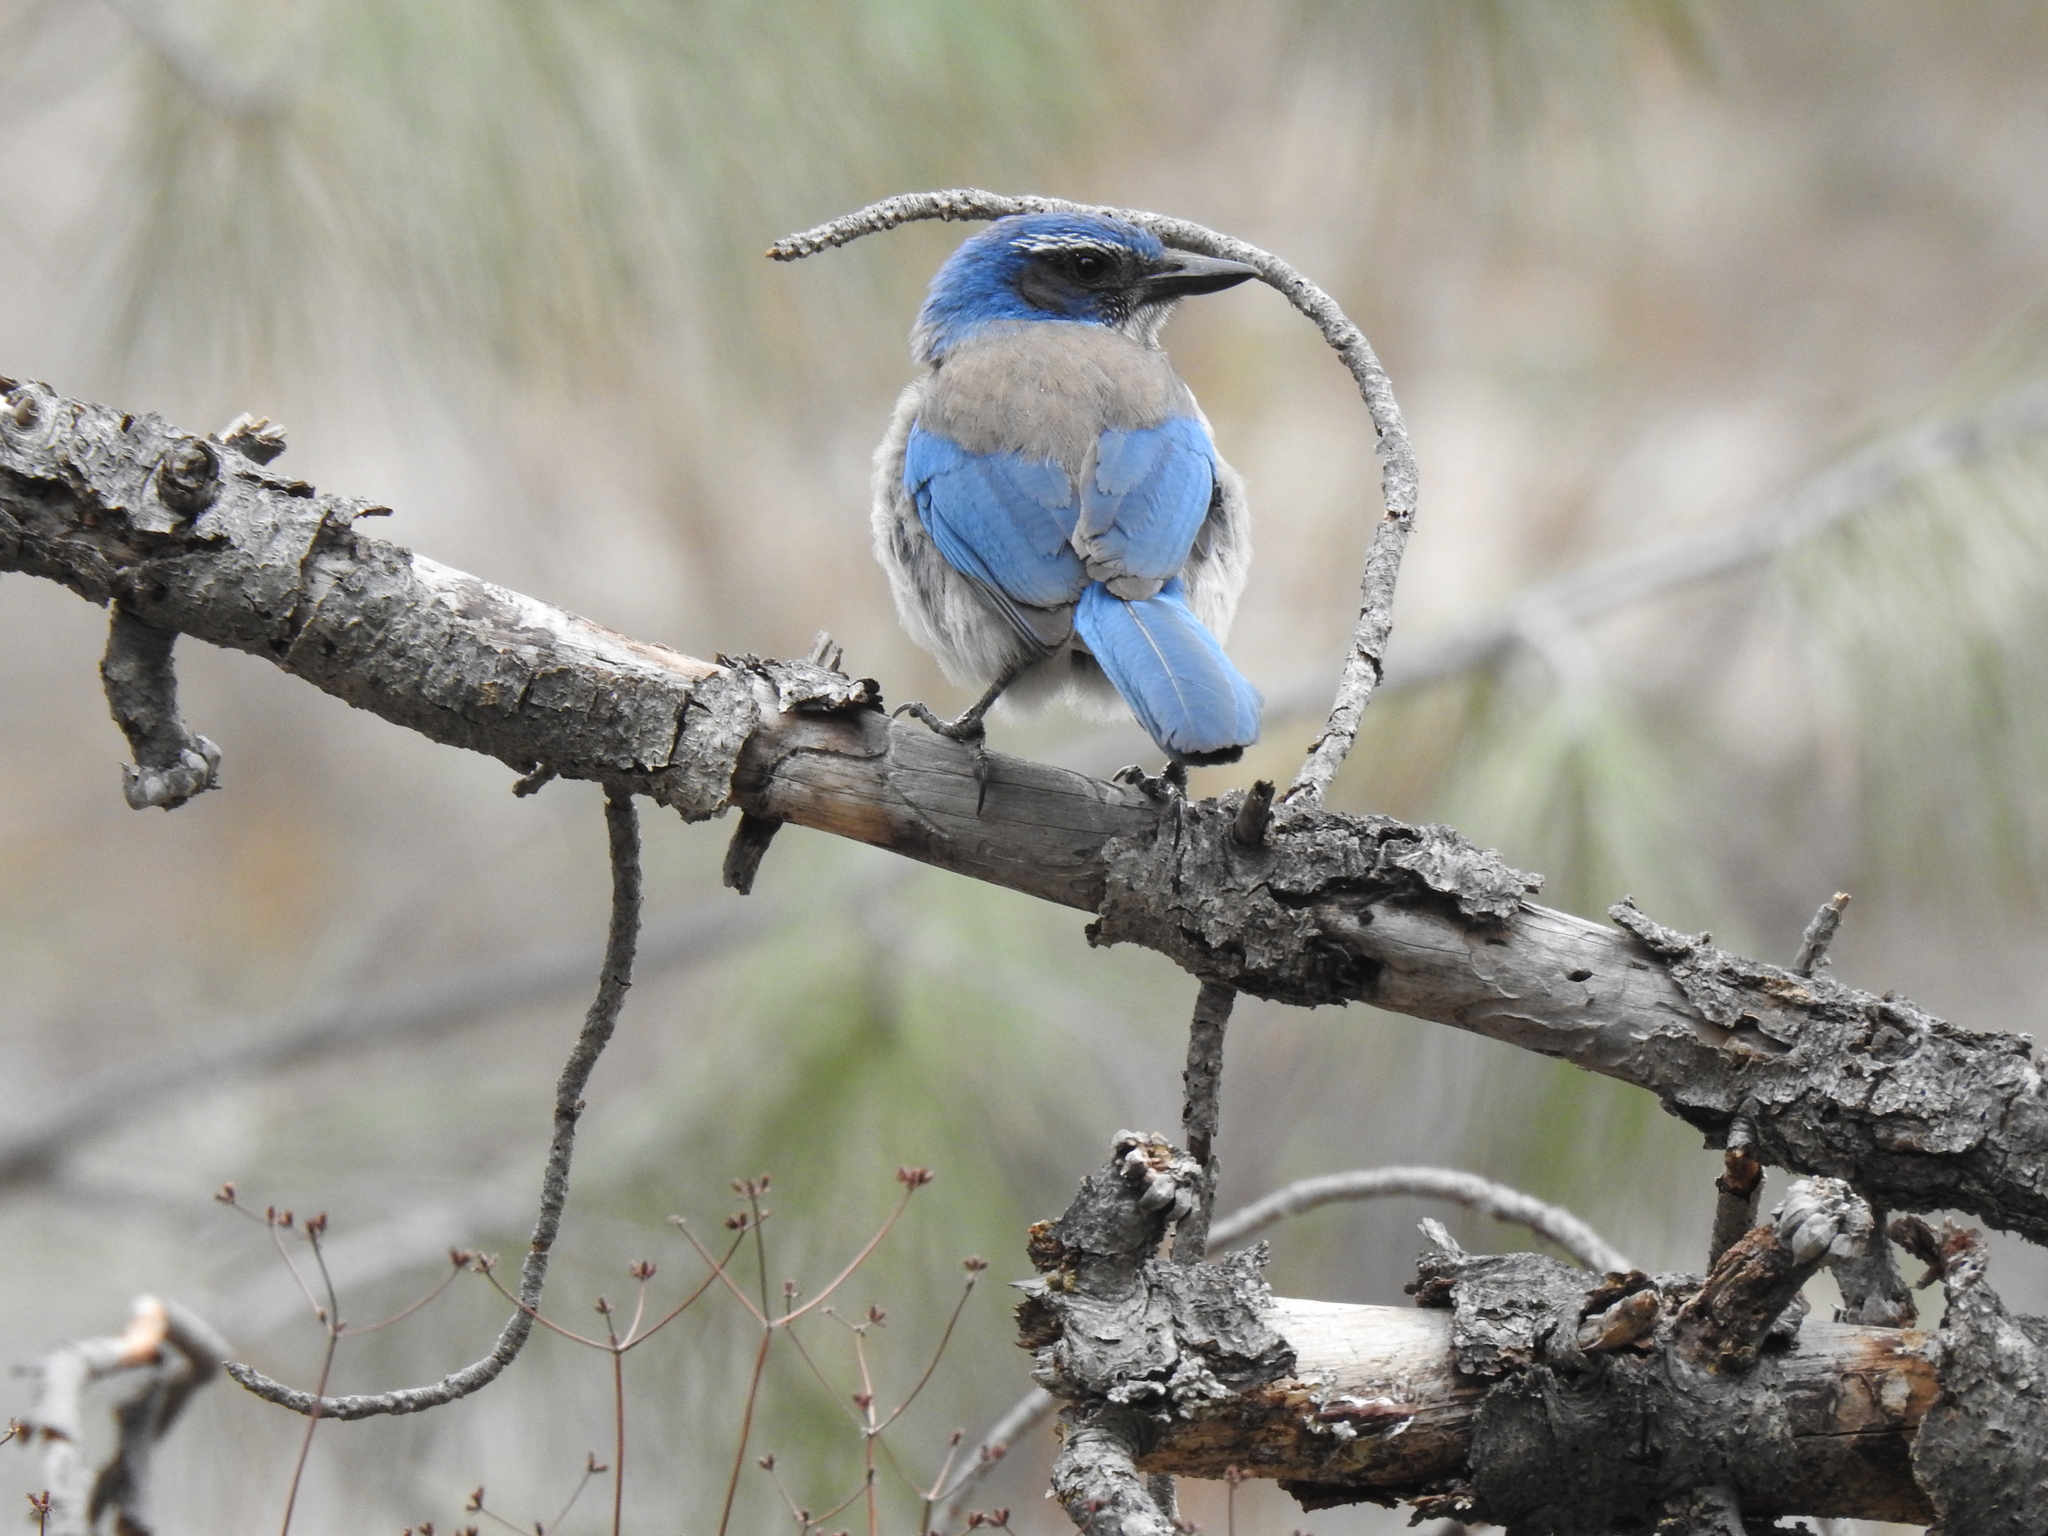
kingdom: Animalia
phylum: Chordata
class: Aves
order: Passeriformes
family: Corvidae
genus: Aphelocoma
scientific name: Aphelocoma californica
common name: California scrub-jay
